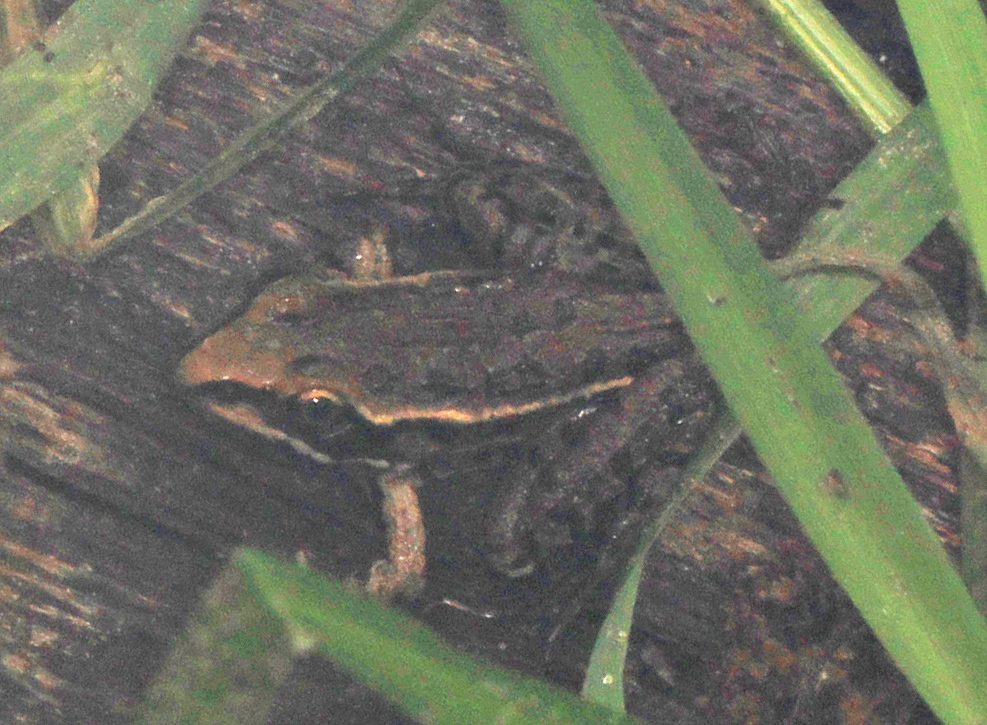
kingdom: Animalia
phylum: Chordata
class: Amphibia
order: Anura
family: Ranidae
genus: Lithobates
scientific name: Lithobates sphenocephalus
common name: Southern leopard frog
